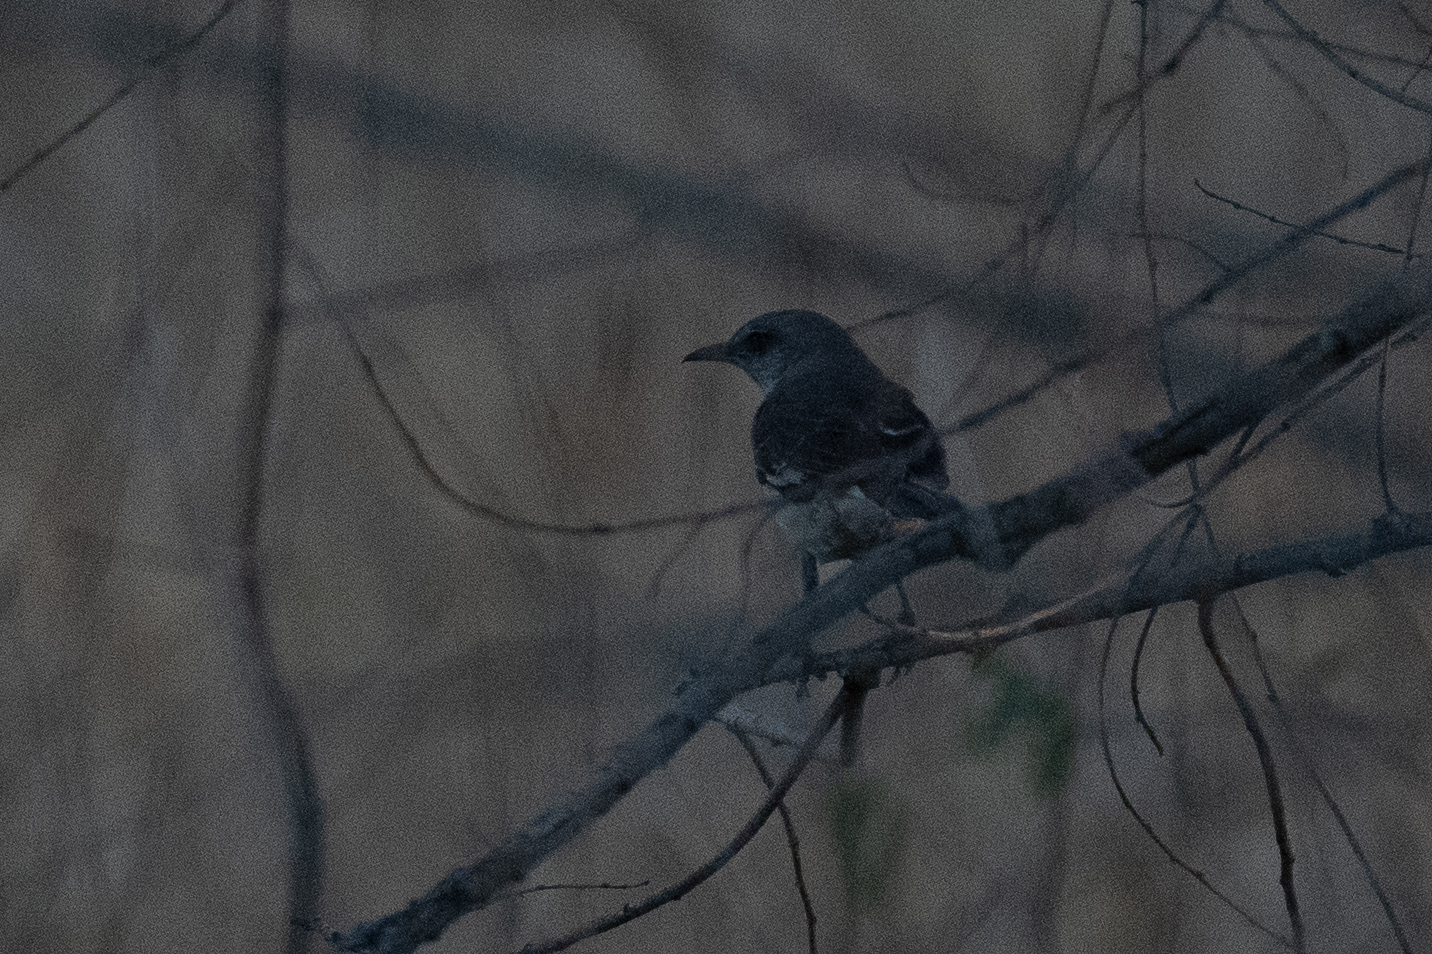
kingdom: Animalia
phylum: Chordata
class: Aves
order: Passeriformes
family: Mimidae
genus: Mimus
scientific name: Mimus polyglottos
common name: Northern mockingbird
